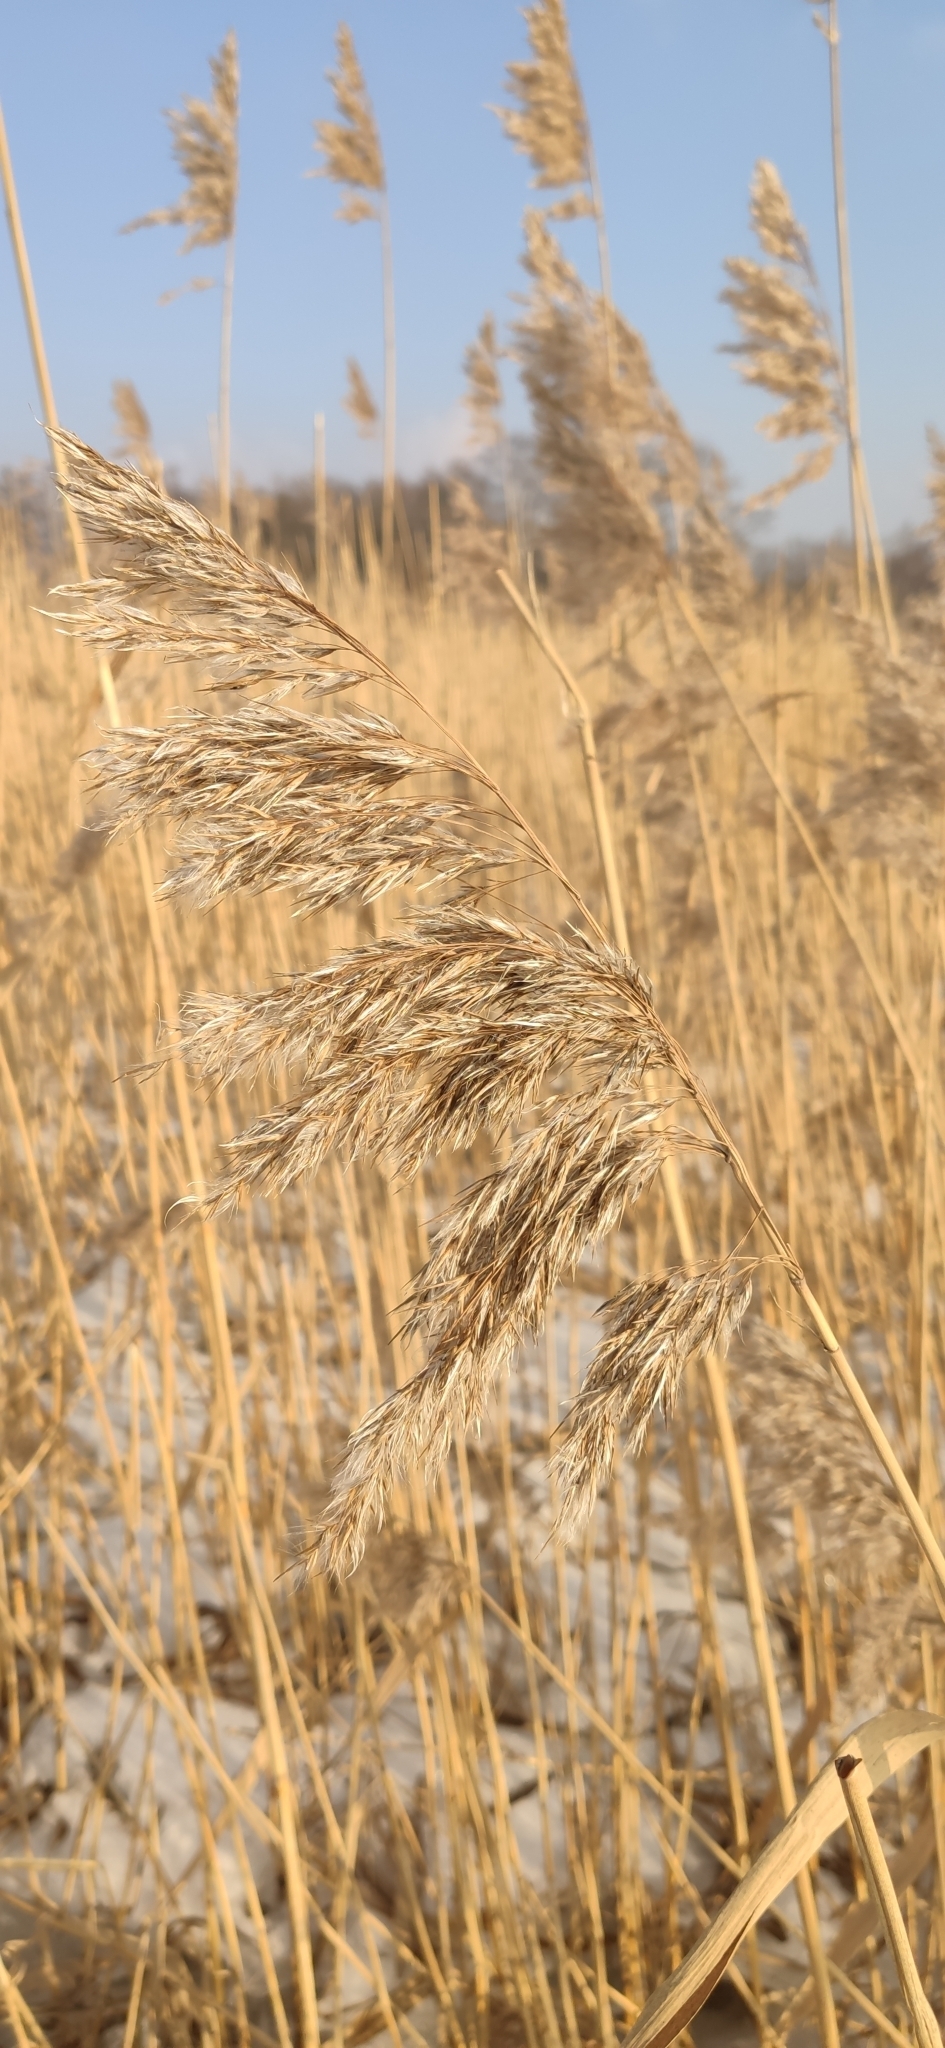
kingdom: Plantae
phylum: Tracheophyta
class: Liliopsida
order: Poales
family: Poaceae
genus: Phragmites
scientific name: Phragmites australis
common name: Common reed
